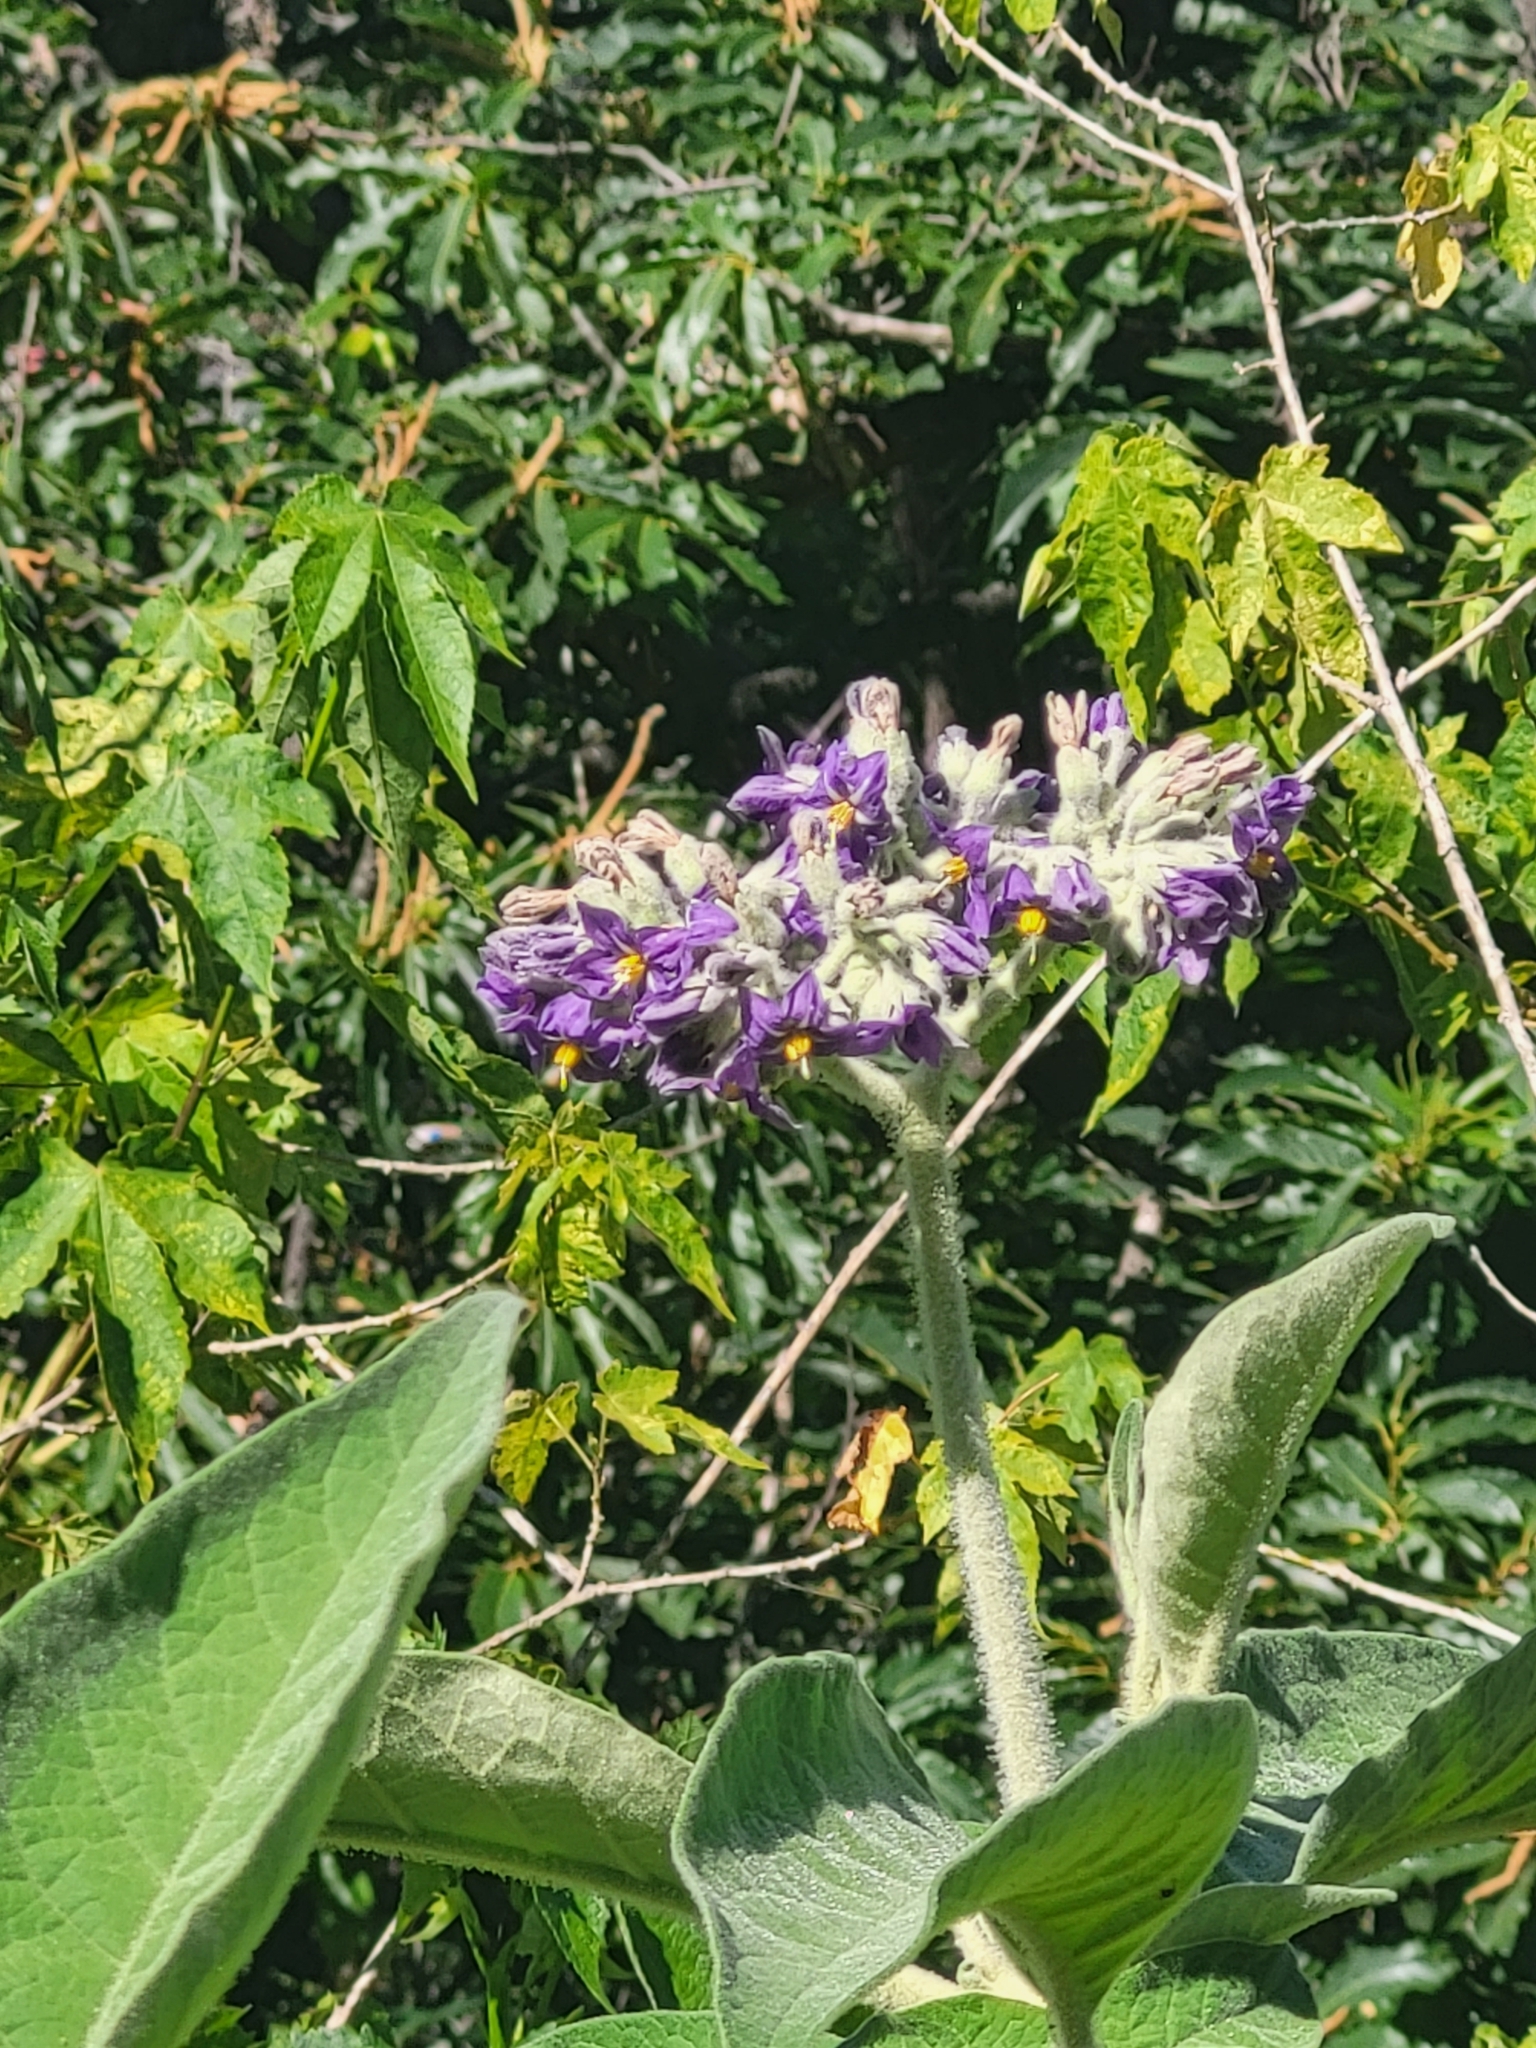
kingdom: Plantae
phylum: Tracheophyta
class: Magnoliopsida
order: Solanales
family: Solanaceae
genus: Solanum
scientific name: Solanum mauritianum
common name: Earleaf nightshade
